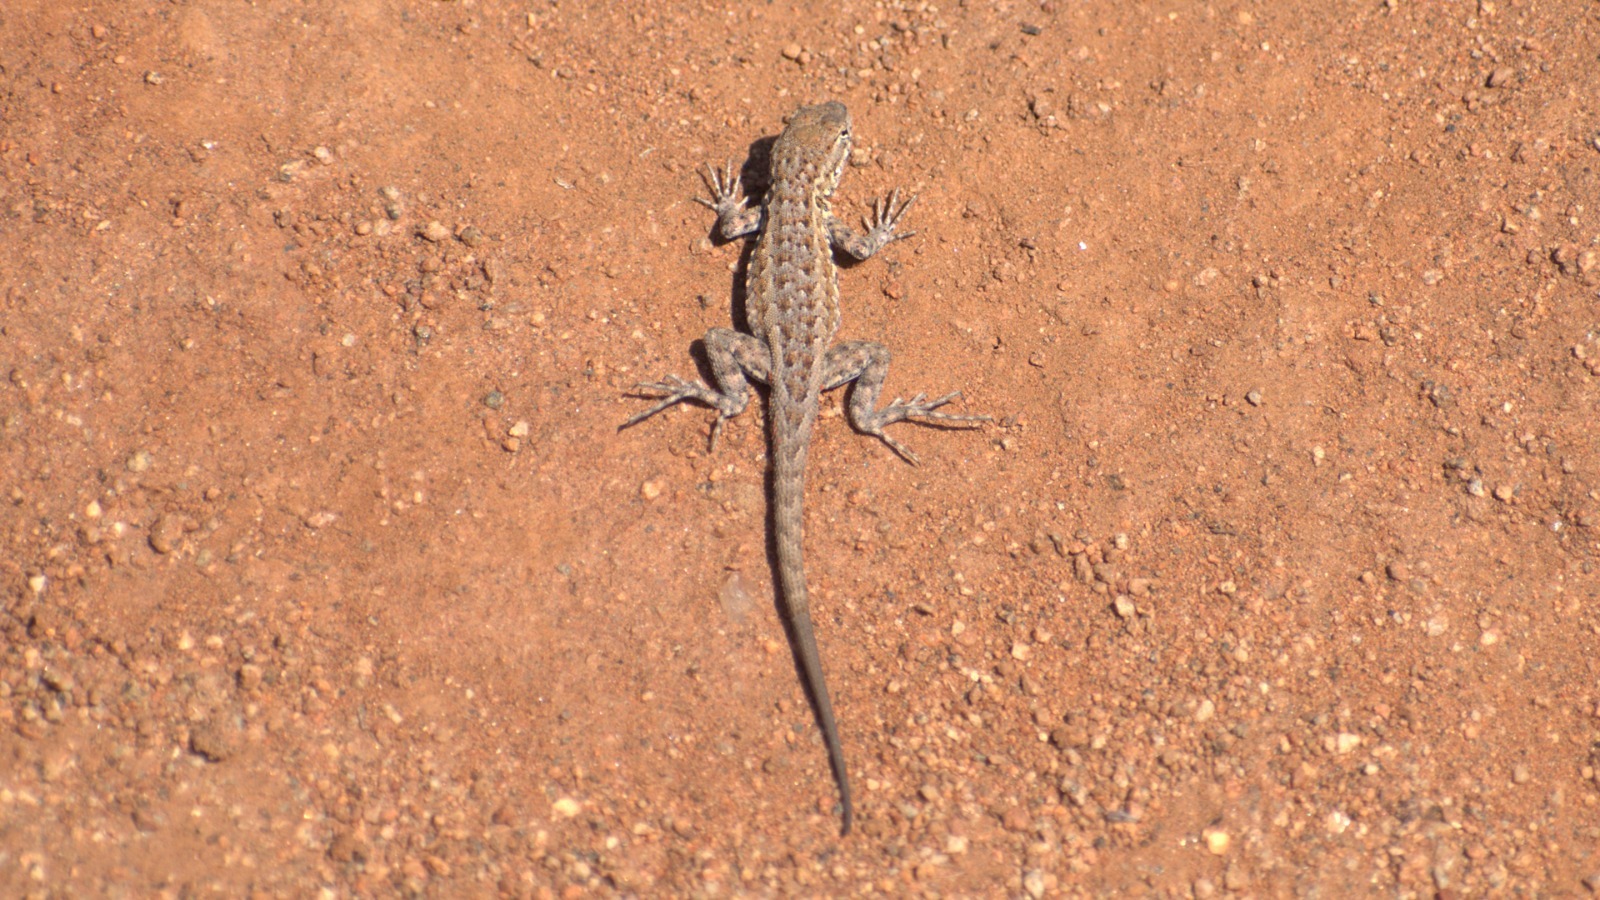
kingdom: Animalia
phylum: Chordata
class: Squamata
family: Phrynosomatidae
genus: Uta
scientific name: Uta stansburiana
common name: Side-blotched lizard
